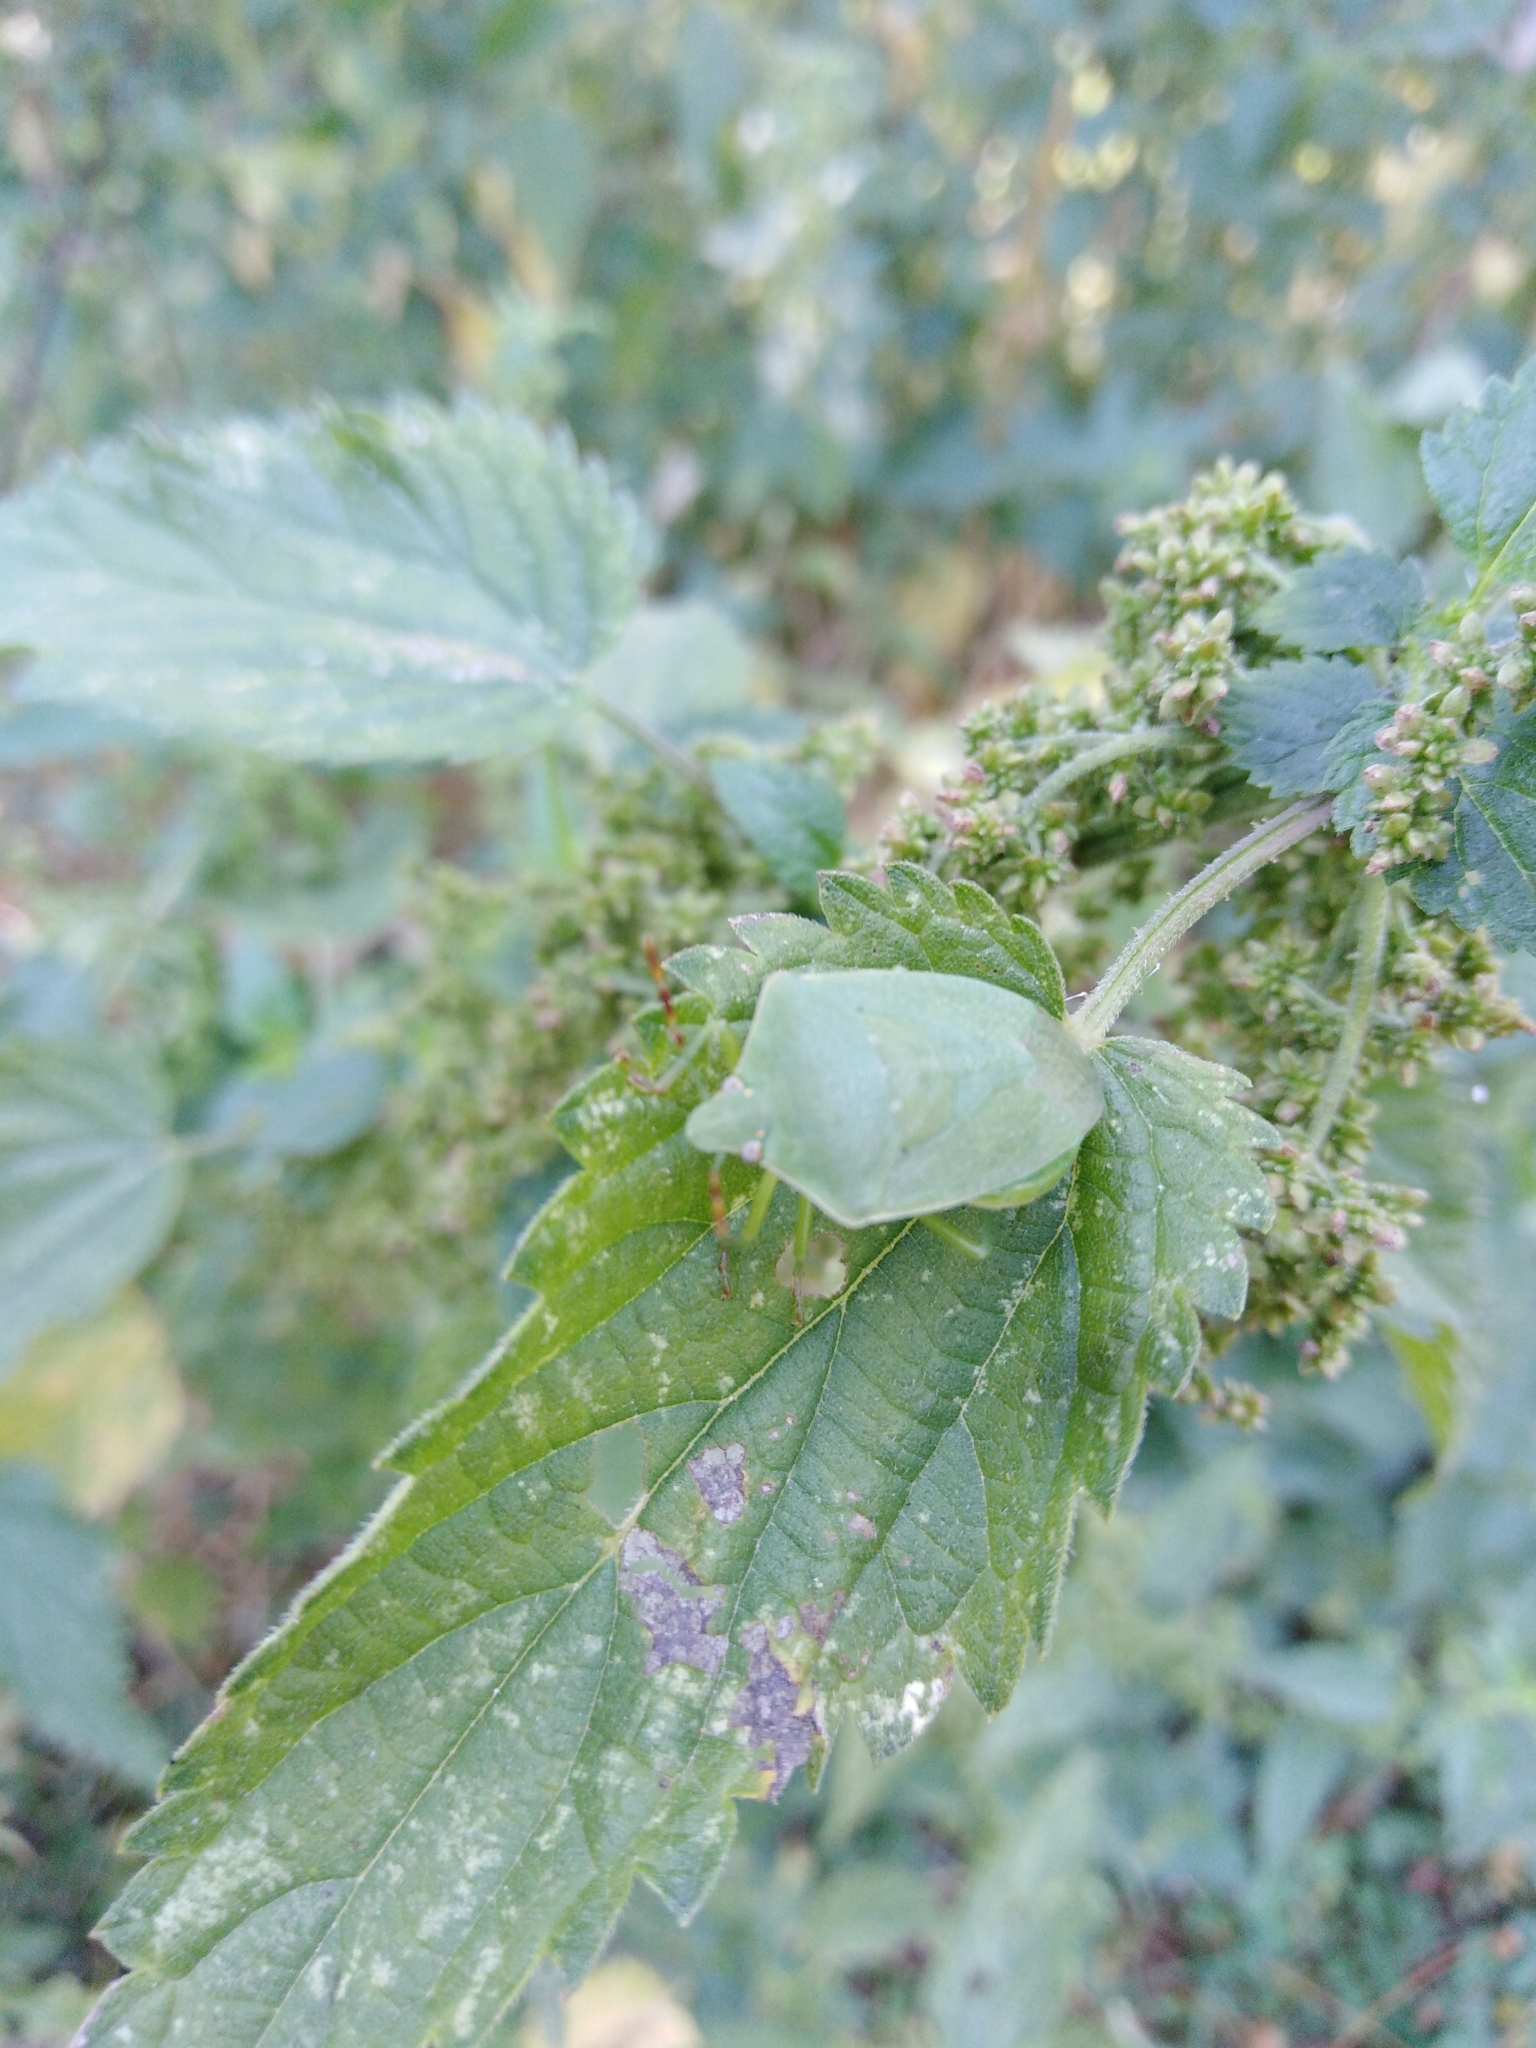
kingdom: Animalia
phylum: Arthropoda
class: Insecta
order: Hemiptera
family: Pentatomidae
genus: Nezara
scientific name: Nezara viridula
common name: Southern green stink bug
